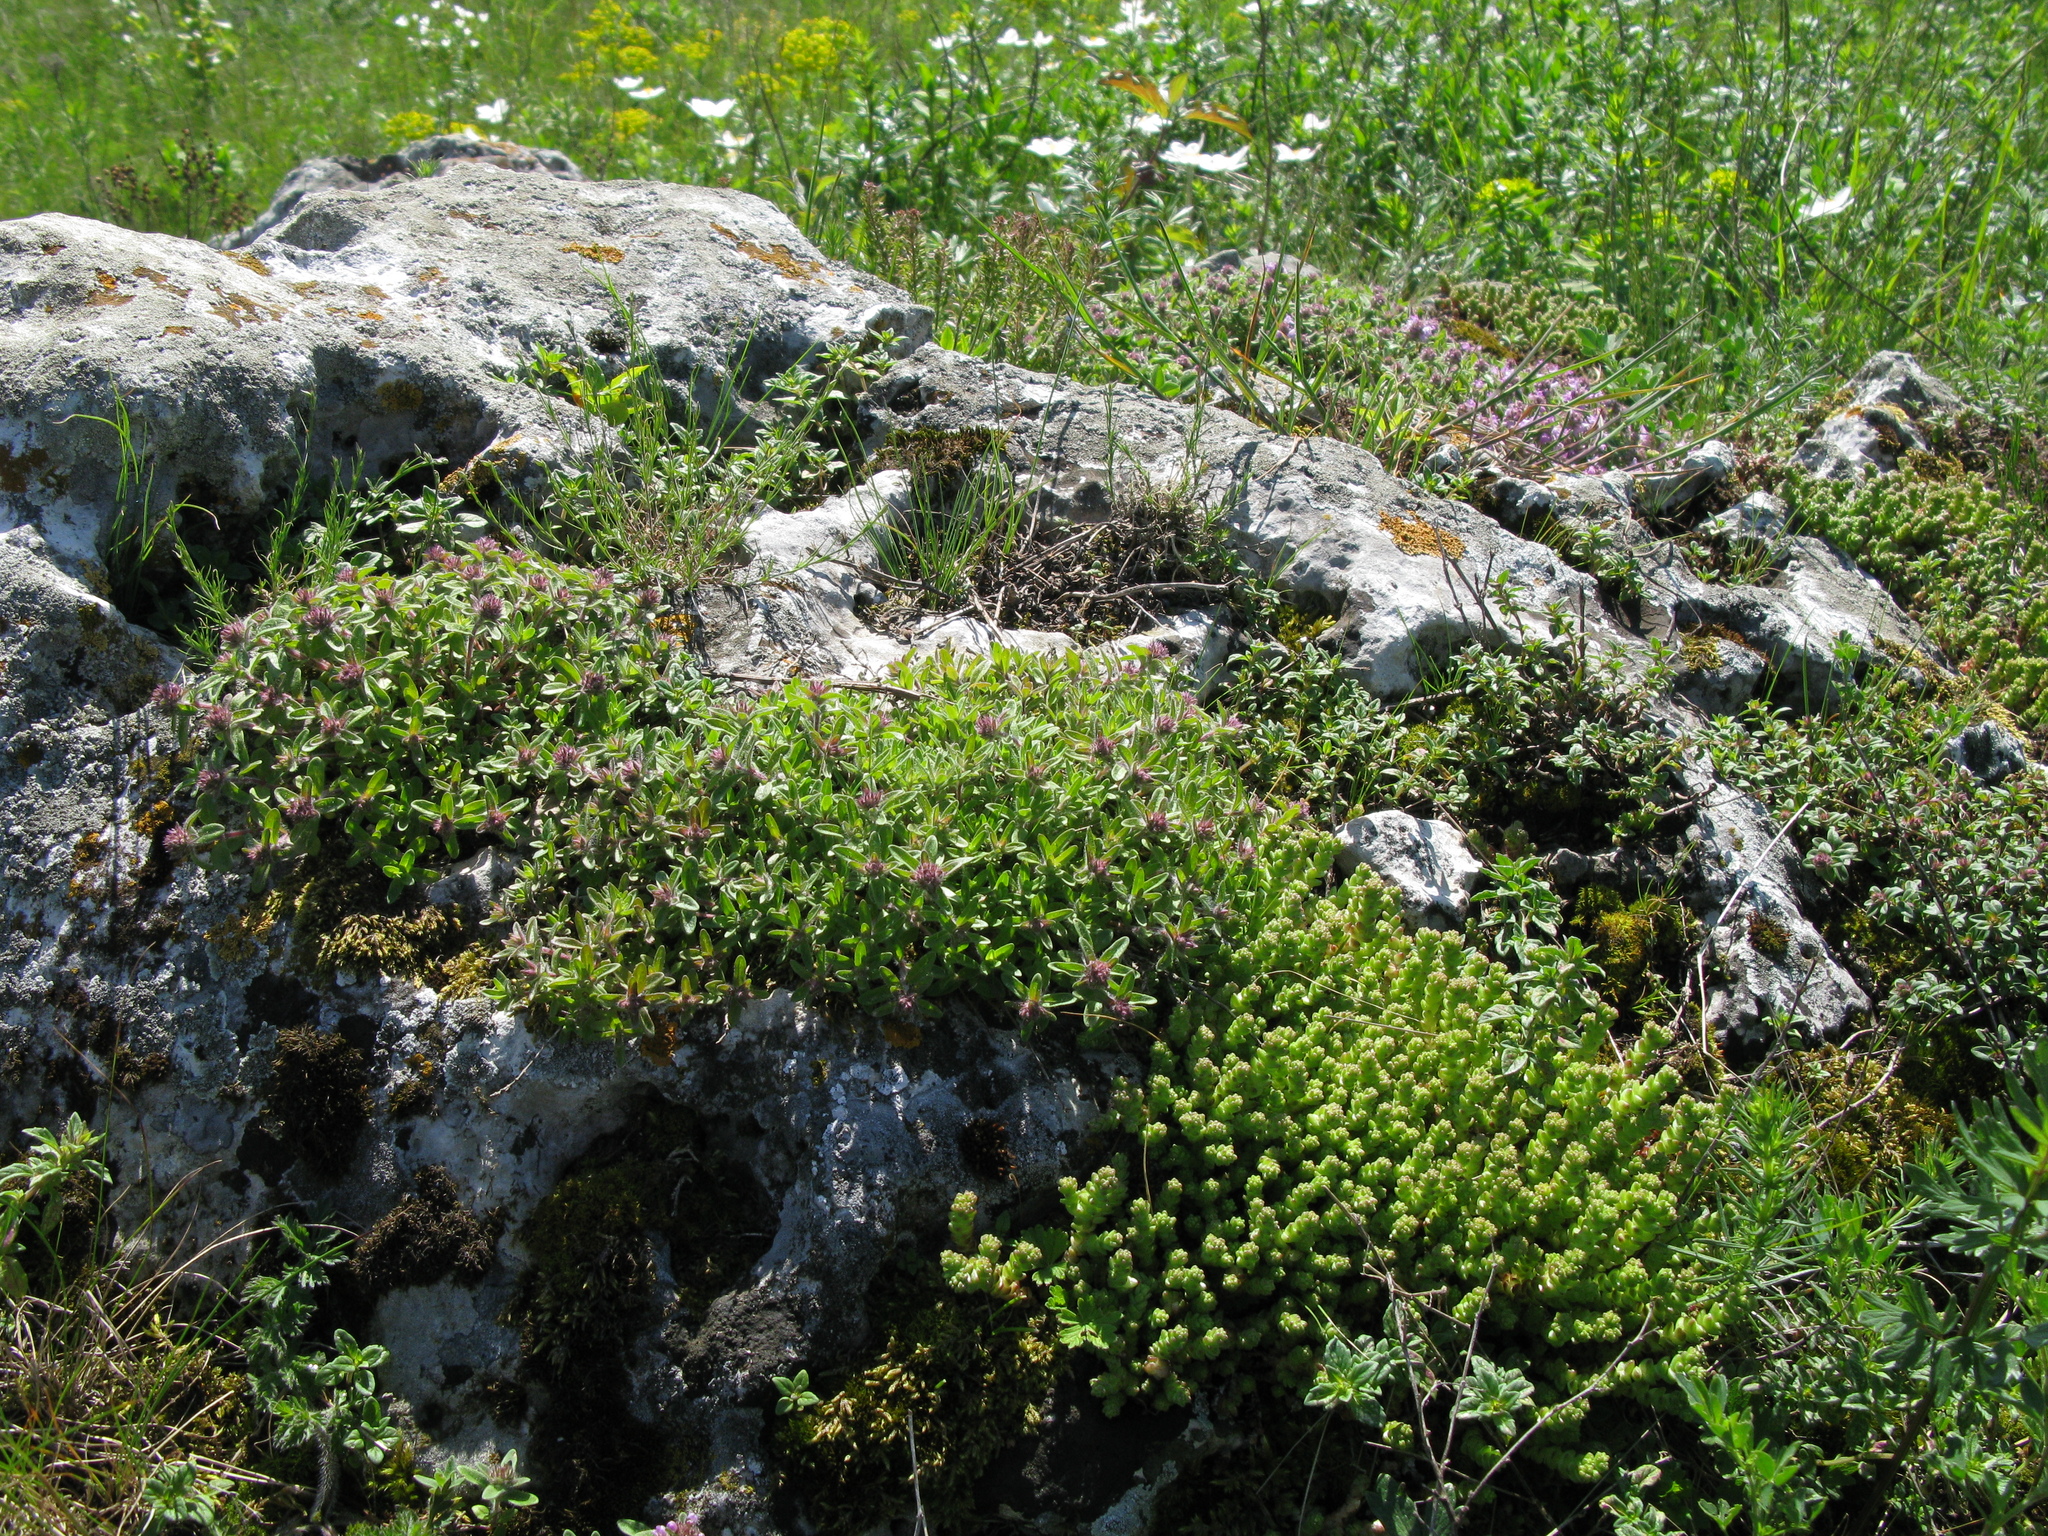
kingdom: Plantae
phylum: Tracheophyta
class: Magnoliopsida
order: Saxifragales
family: Crassulaceae
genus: Sedum
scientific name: Sedum acre
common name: Biting stonecrop
